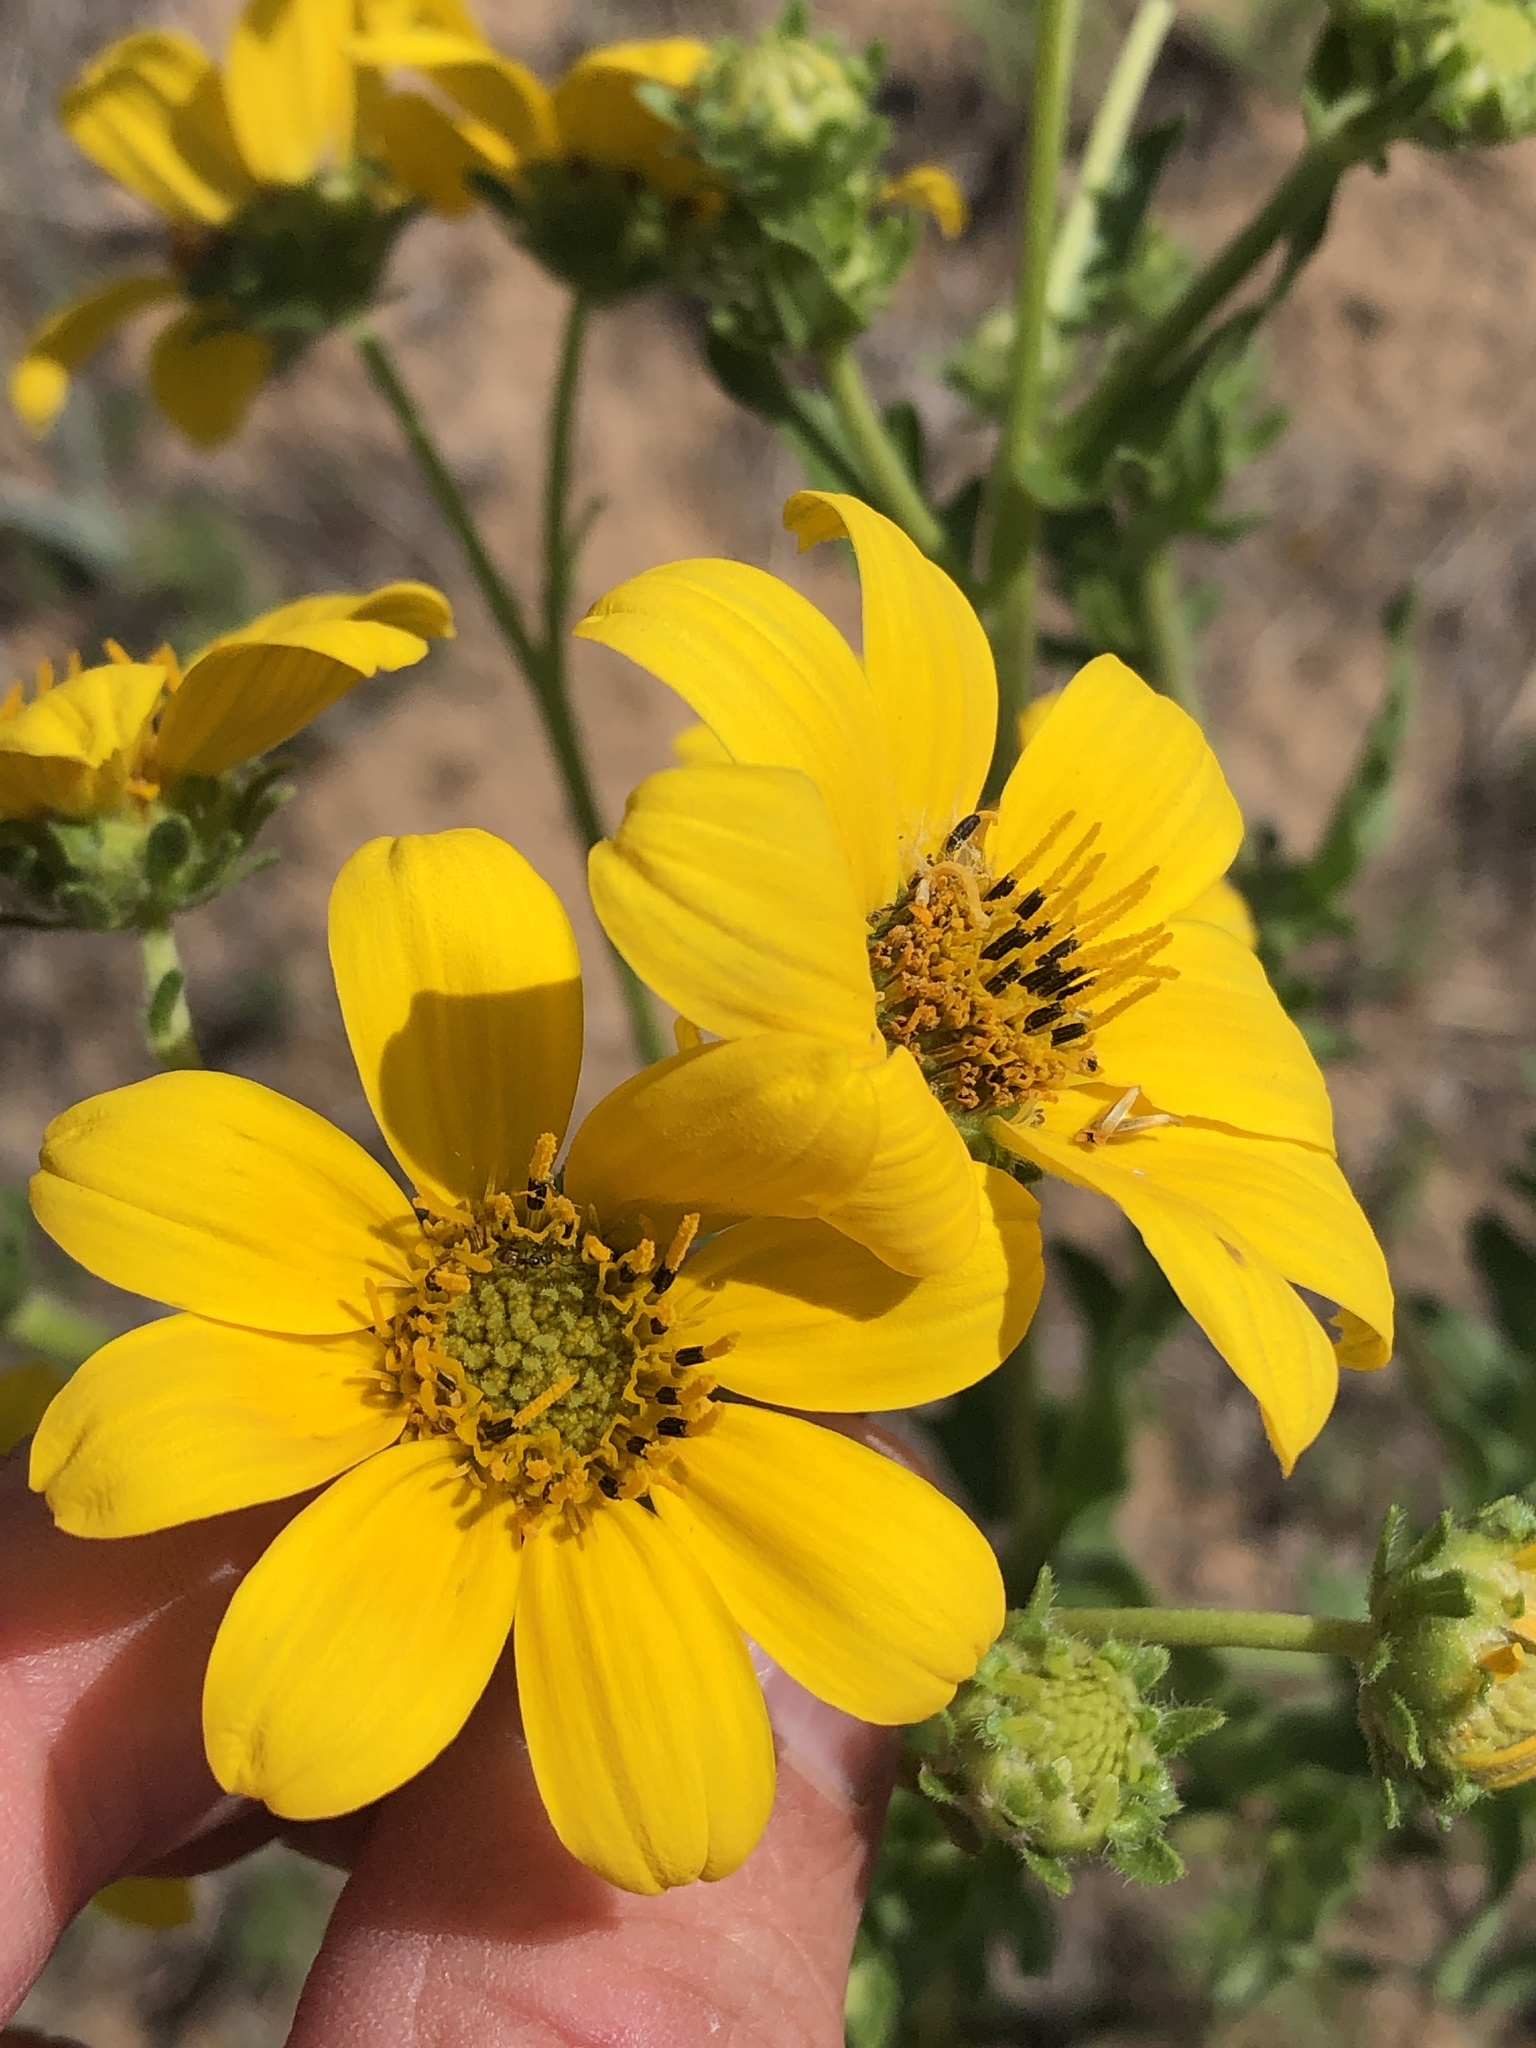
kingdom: Plantae
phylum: Tracheophyta
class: Magnoliopsida
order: Asterales
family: Asteraceae
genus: Engelmannia
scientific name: Engelmannia peristenia
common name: Engelmann's daisy
